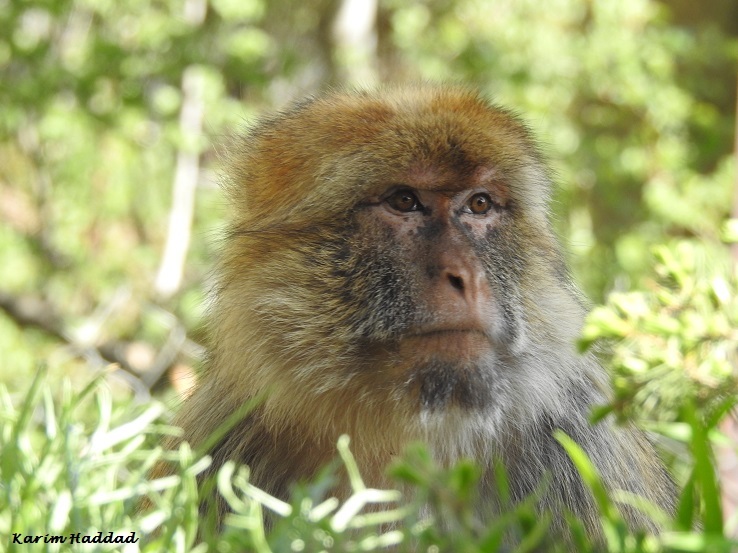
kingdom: Animalia
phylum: Chordata
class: Mammalia
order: Primates
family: Cercopithecidae
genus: Macaca
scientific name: Macaca sylvanus
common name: Barbary macaque
